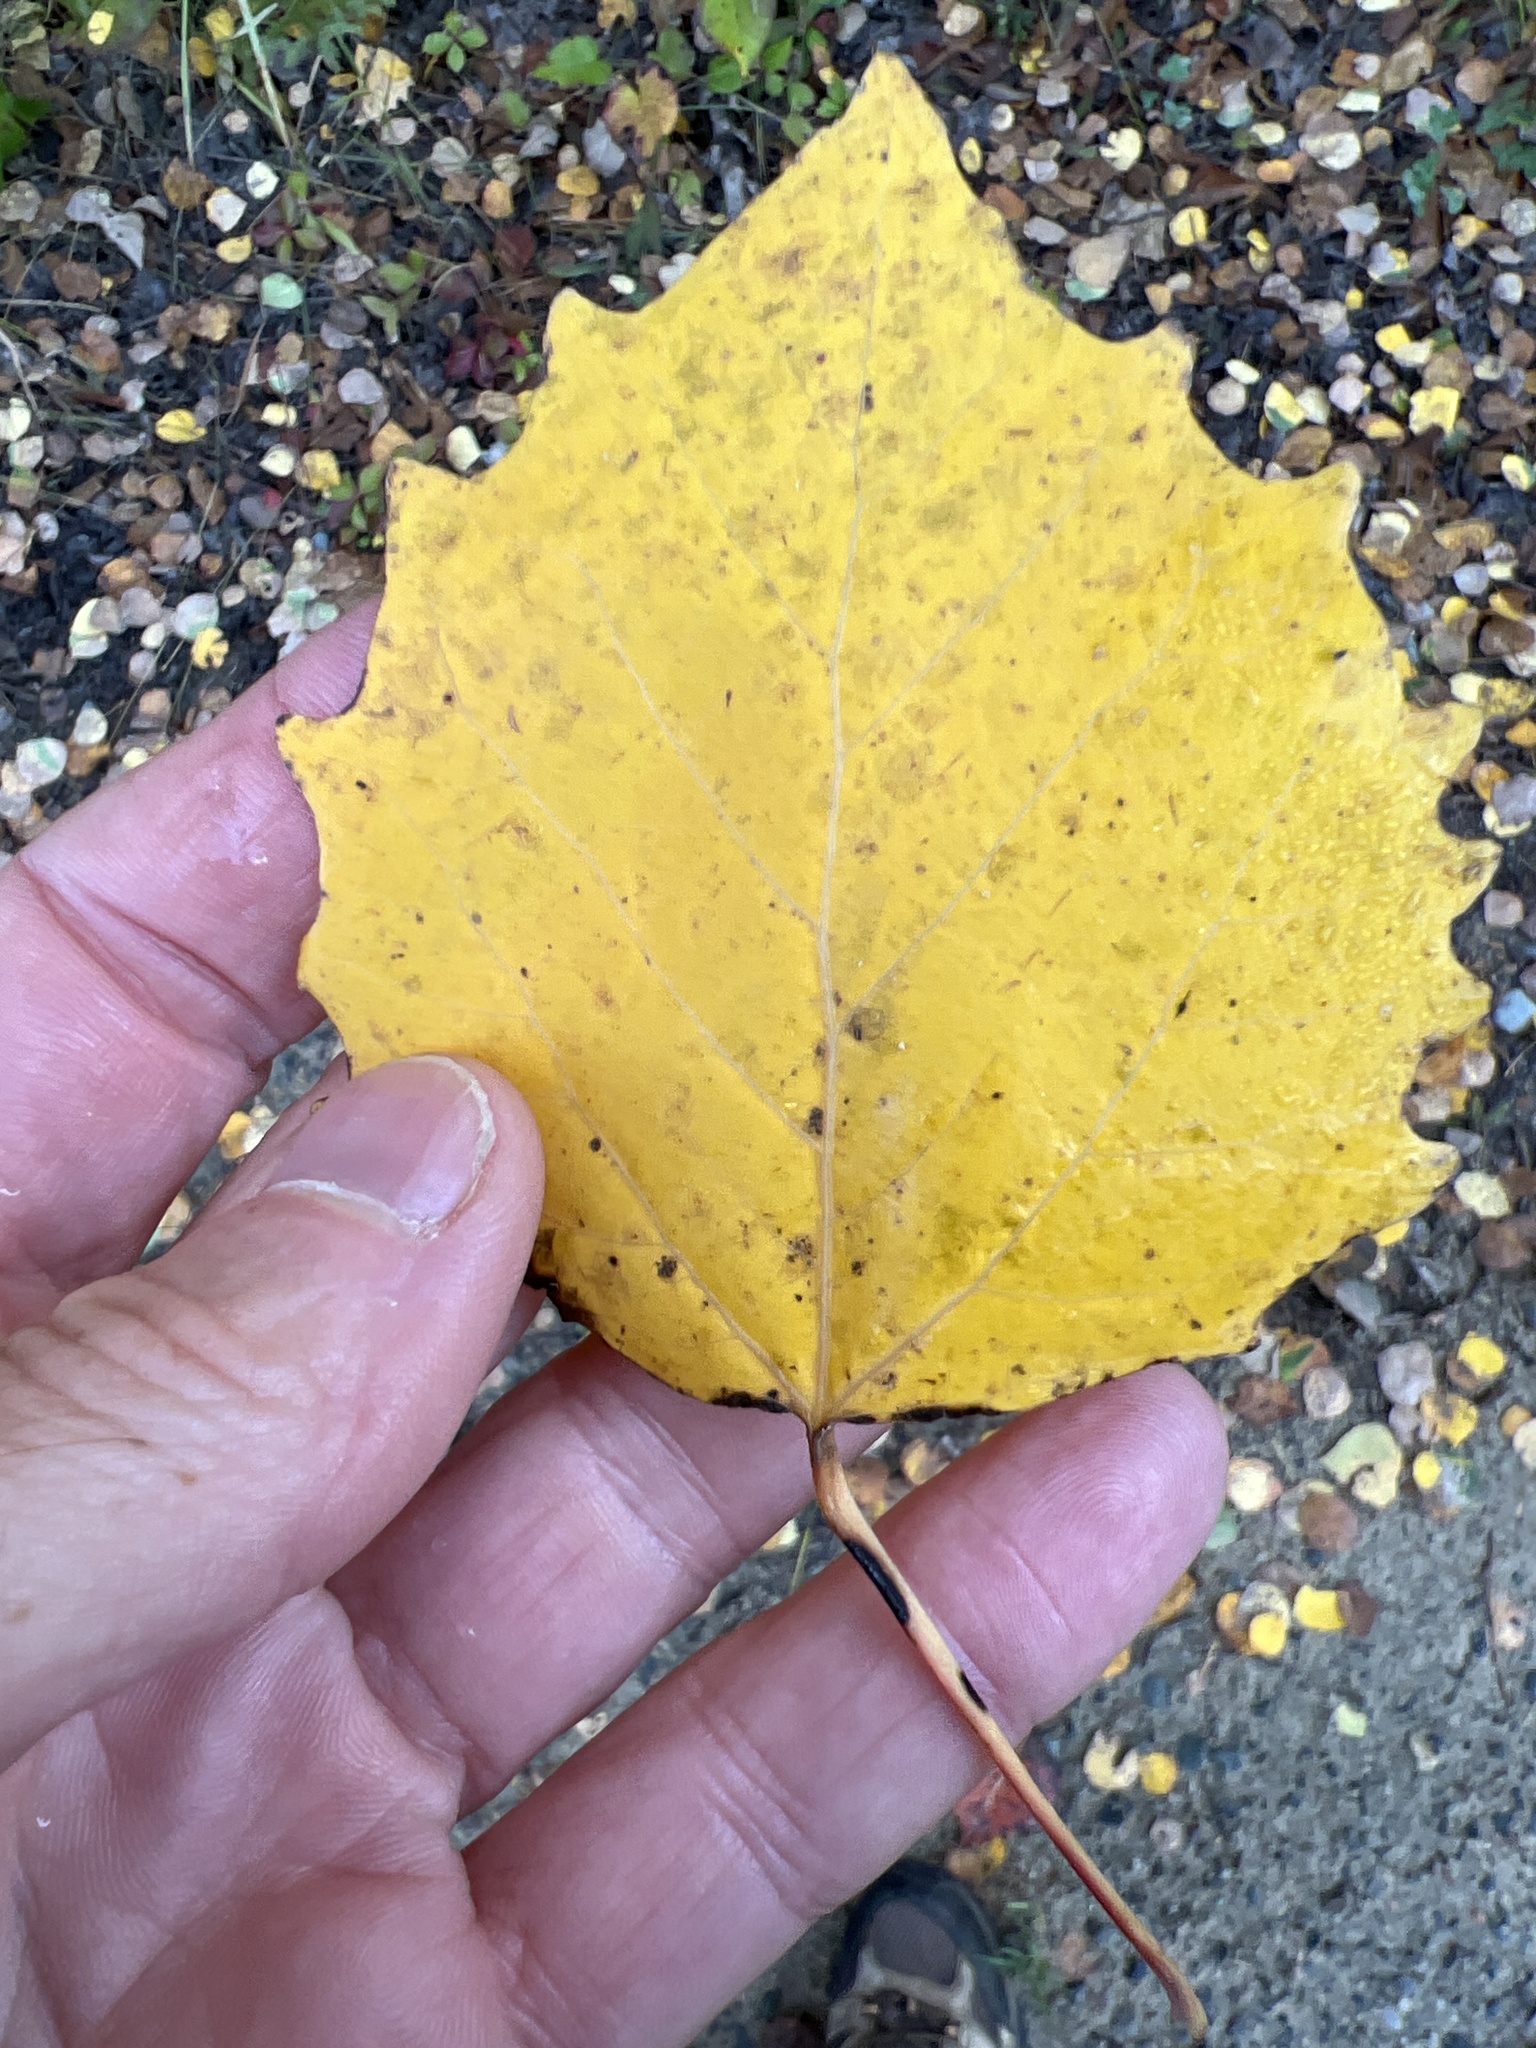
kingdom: Plantae
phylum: Tracheophyta
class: Magnoliopsida
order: Malpighiales
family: Salicaceae
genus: Populus
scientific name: Populus grandidentata
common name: Bigtooth aspen
